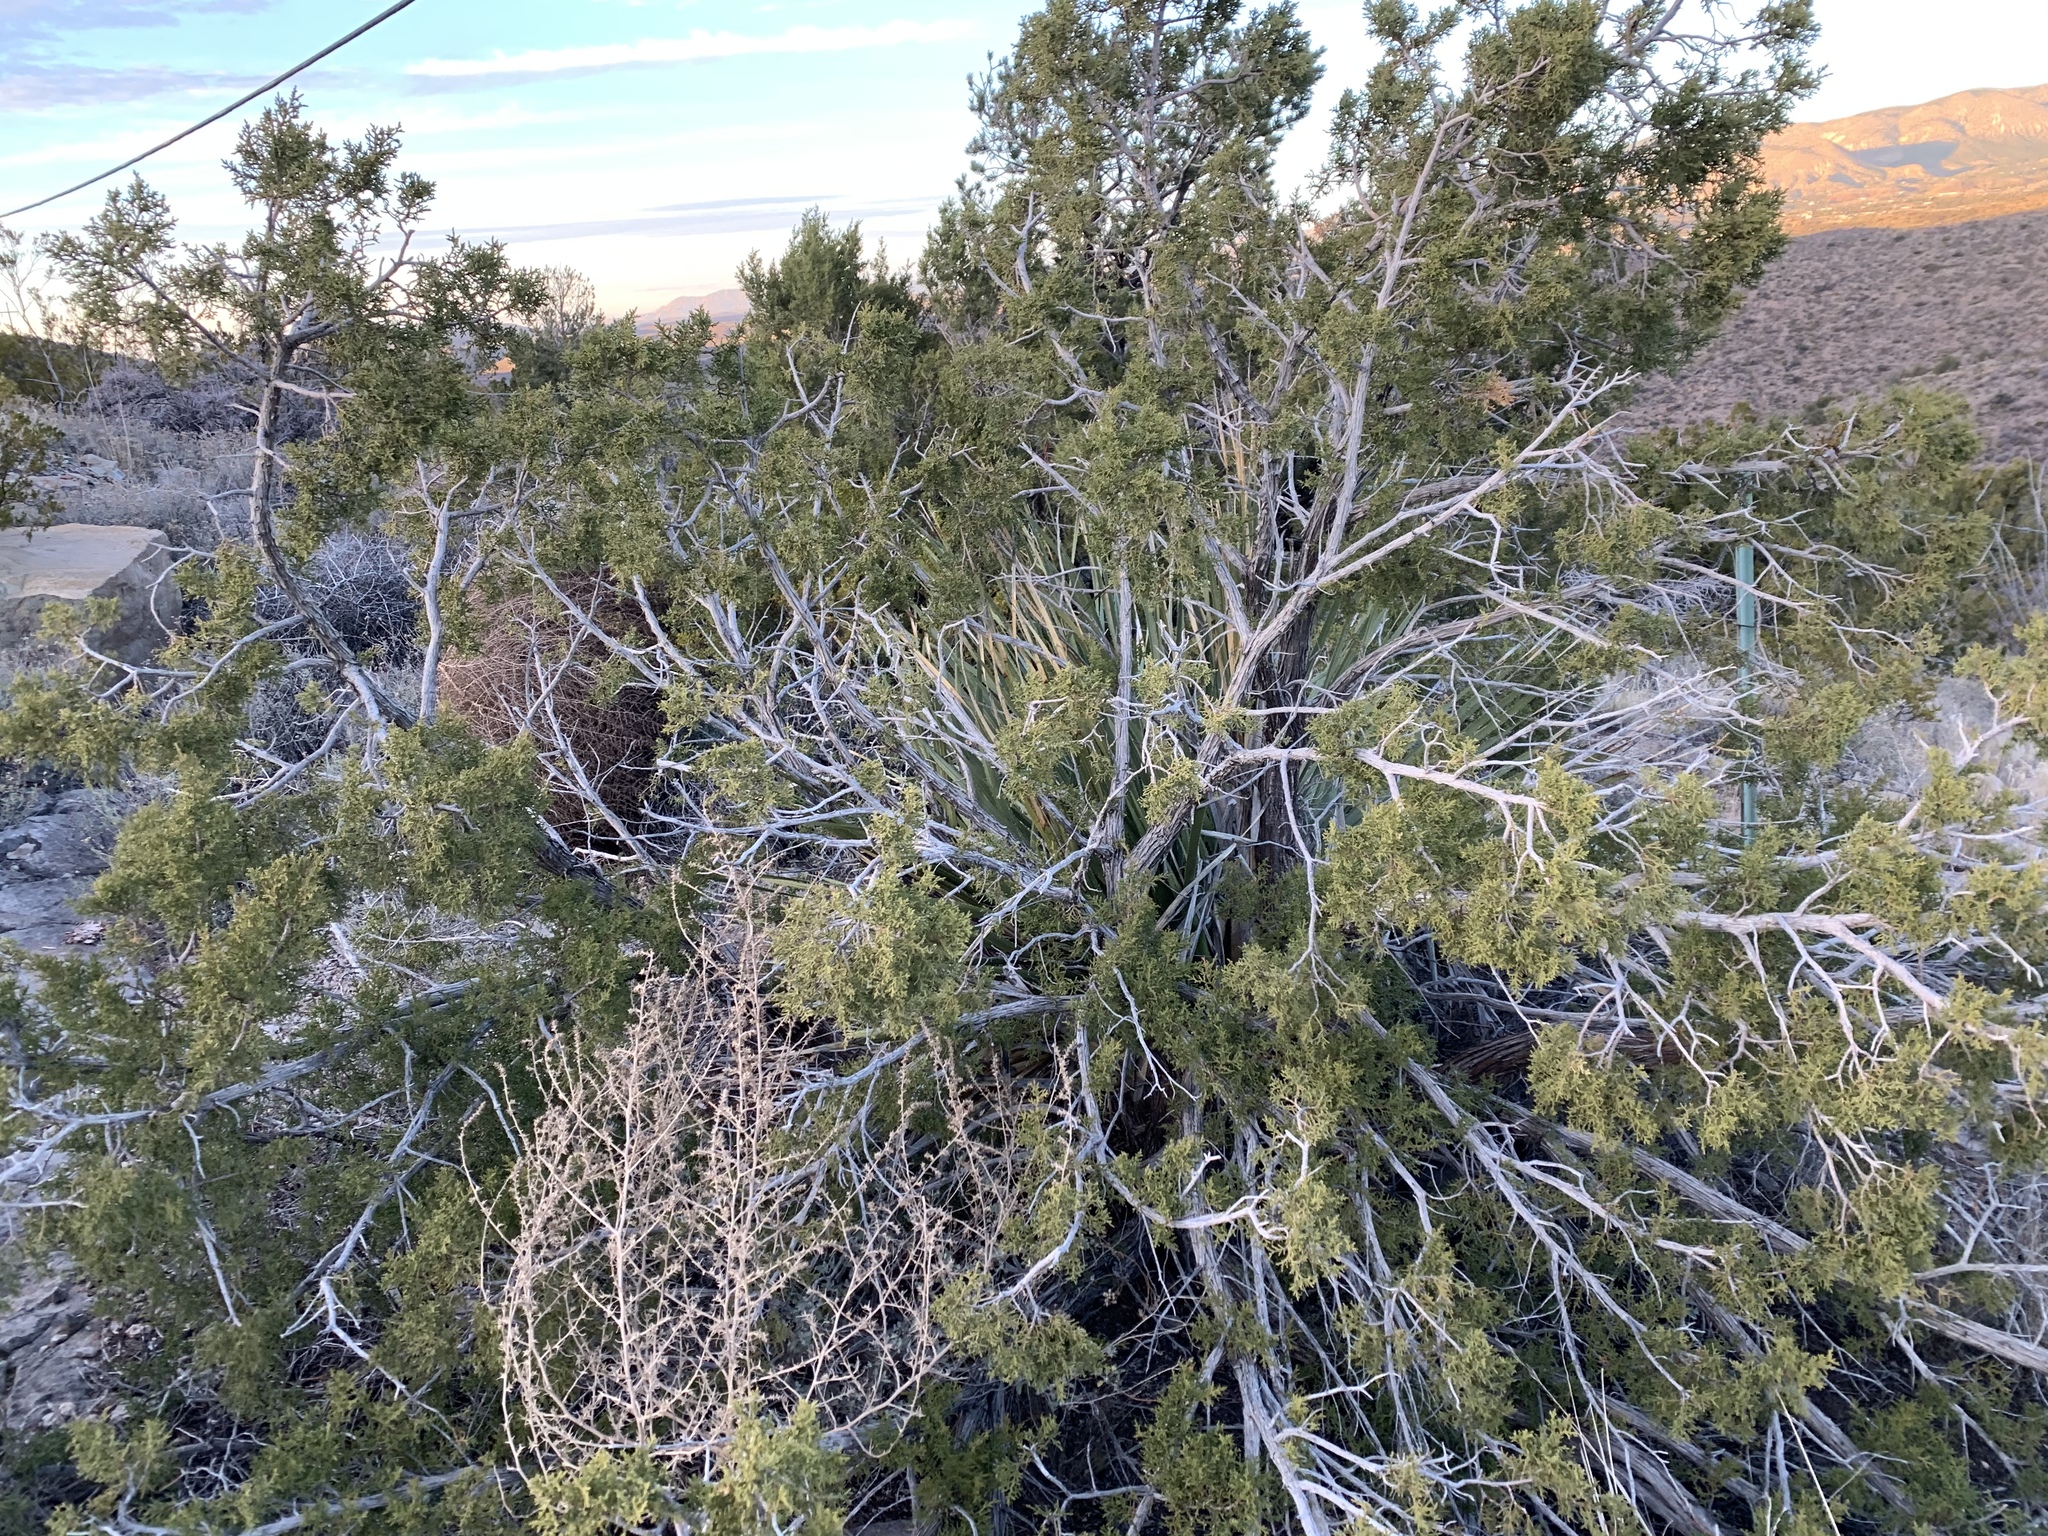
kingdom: Plantae
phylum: Tracheophyta
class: Pinopsida
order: Pinales
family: Cupressaceae
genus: Juniperus
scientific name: Juniperus monosperma
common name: One-seed juniper
